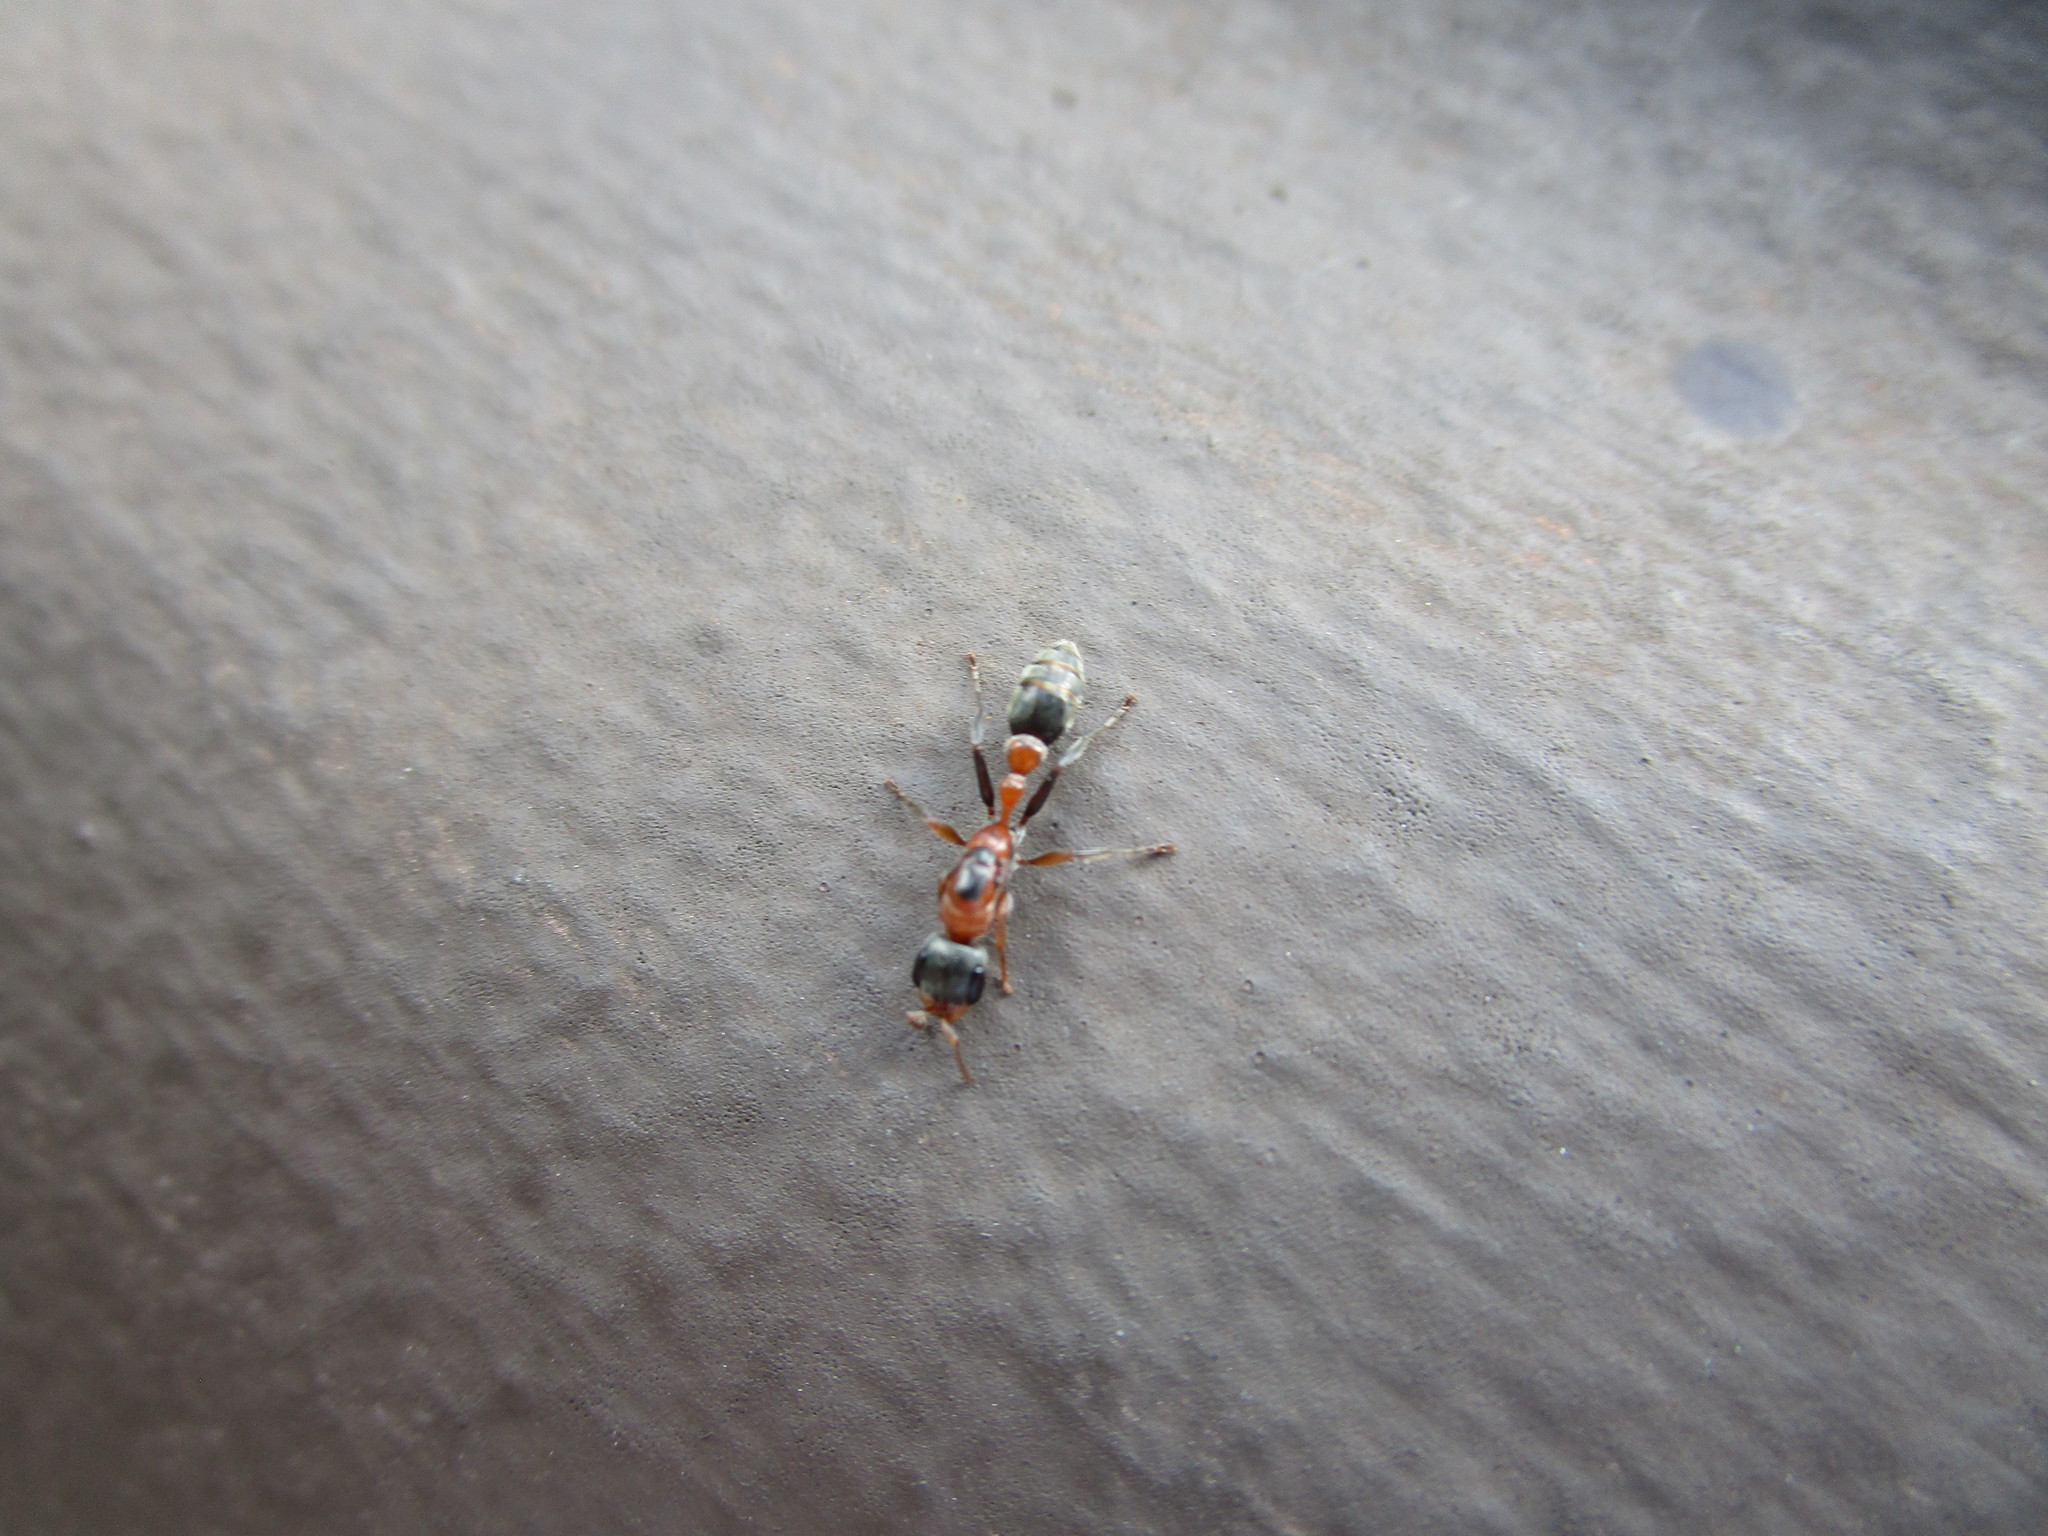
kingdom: Animalia
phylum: Arthropoda
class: Insecta
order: Hymenoptera
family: Formicidae
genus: Pseudomyrmex
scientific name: Pseudomyrmex gracilis
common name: Graceful twig ant
